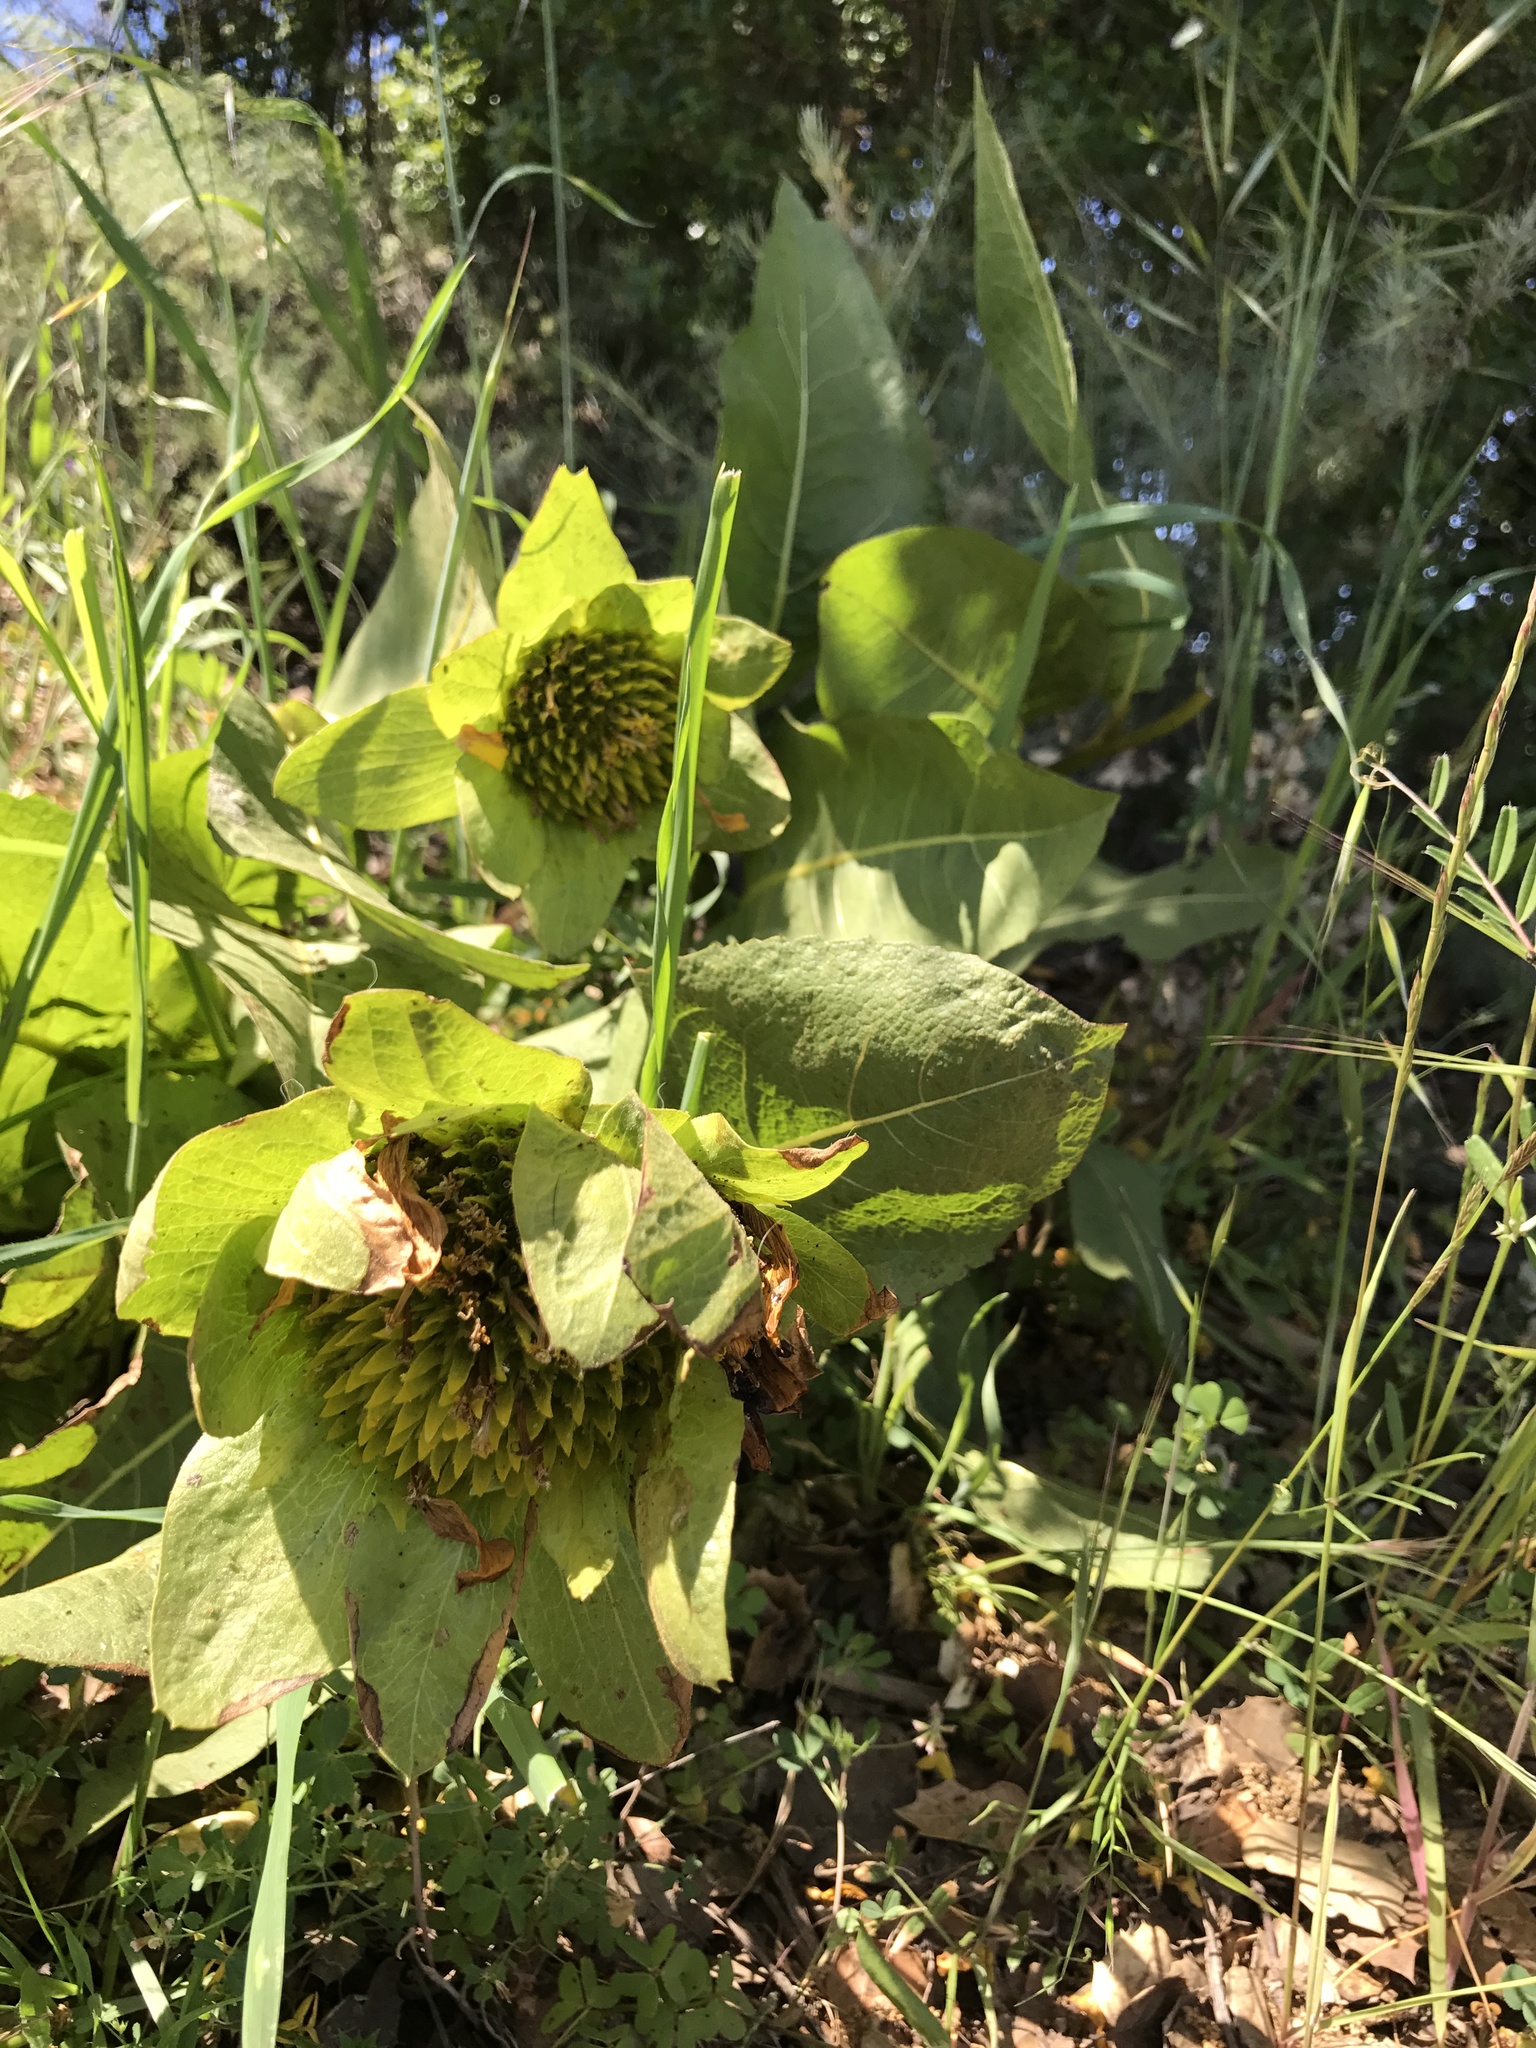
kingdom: Plantae
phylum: Tracheophyta
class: Magnoliopsida
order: Asterales
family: Asteraceae
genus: Wyethia
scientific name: Wyethia glabra
